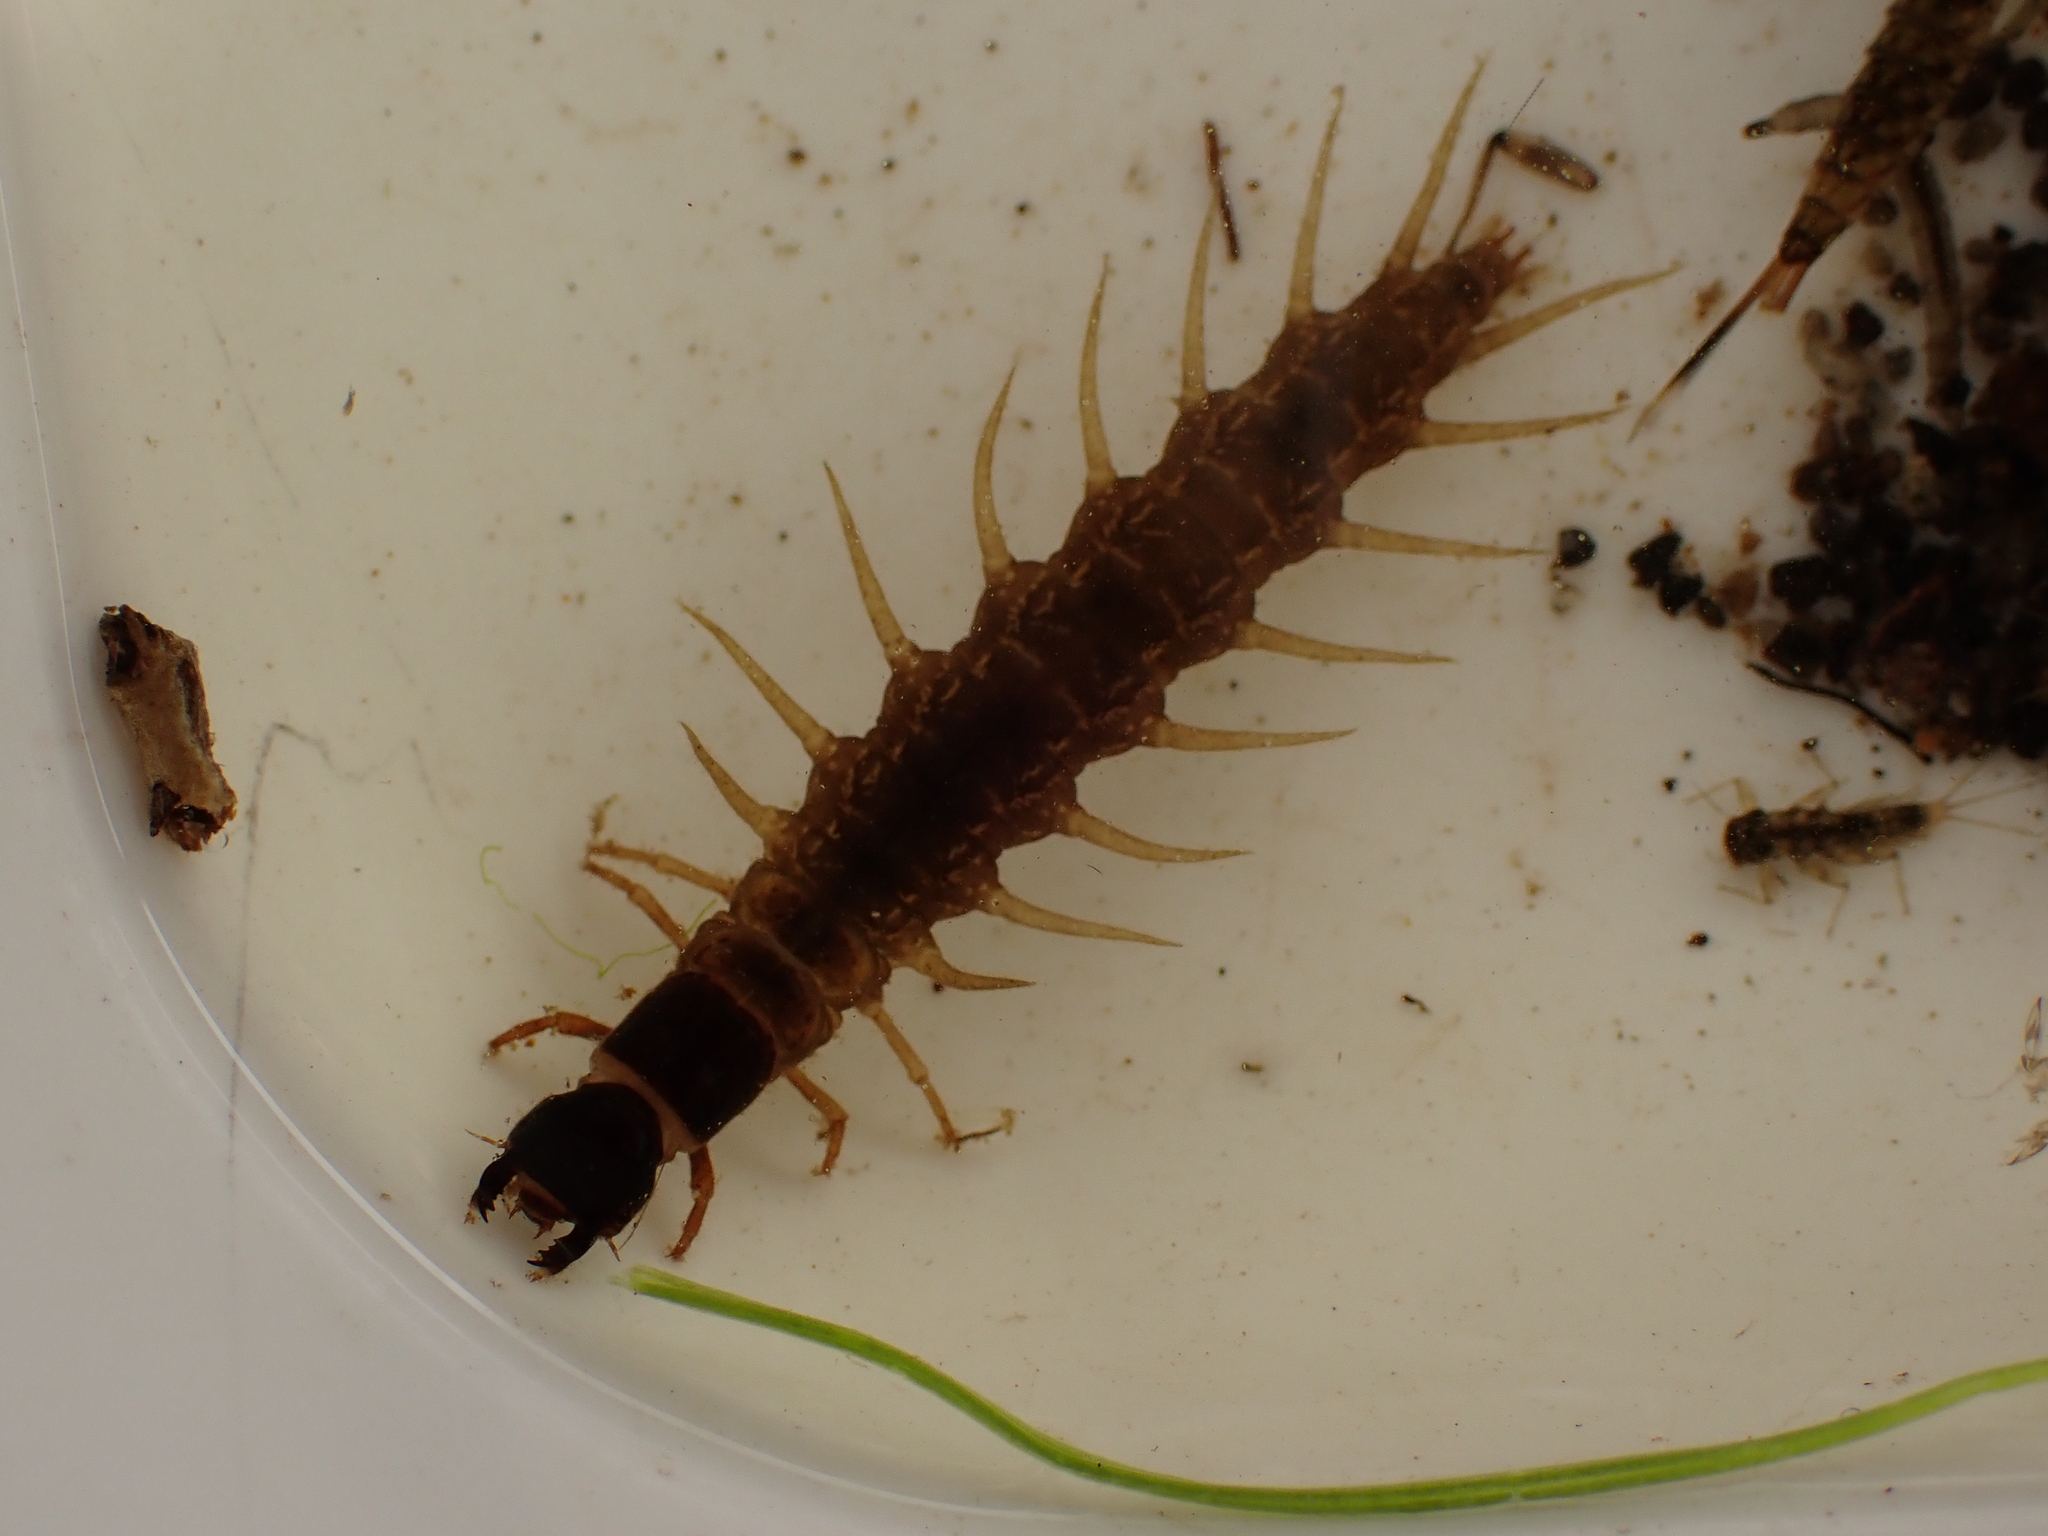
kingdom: Animalia
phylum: Arthropoda
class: Insecta
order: Megaloptera
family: Corydalidae
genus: Archichauliodes
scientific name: Archichauliodes diversus
